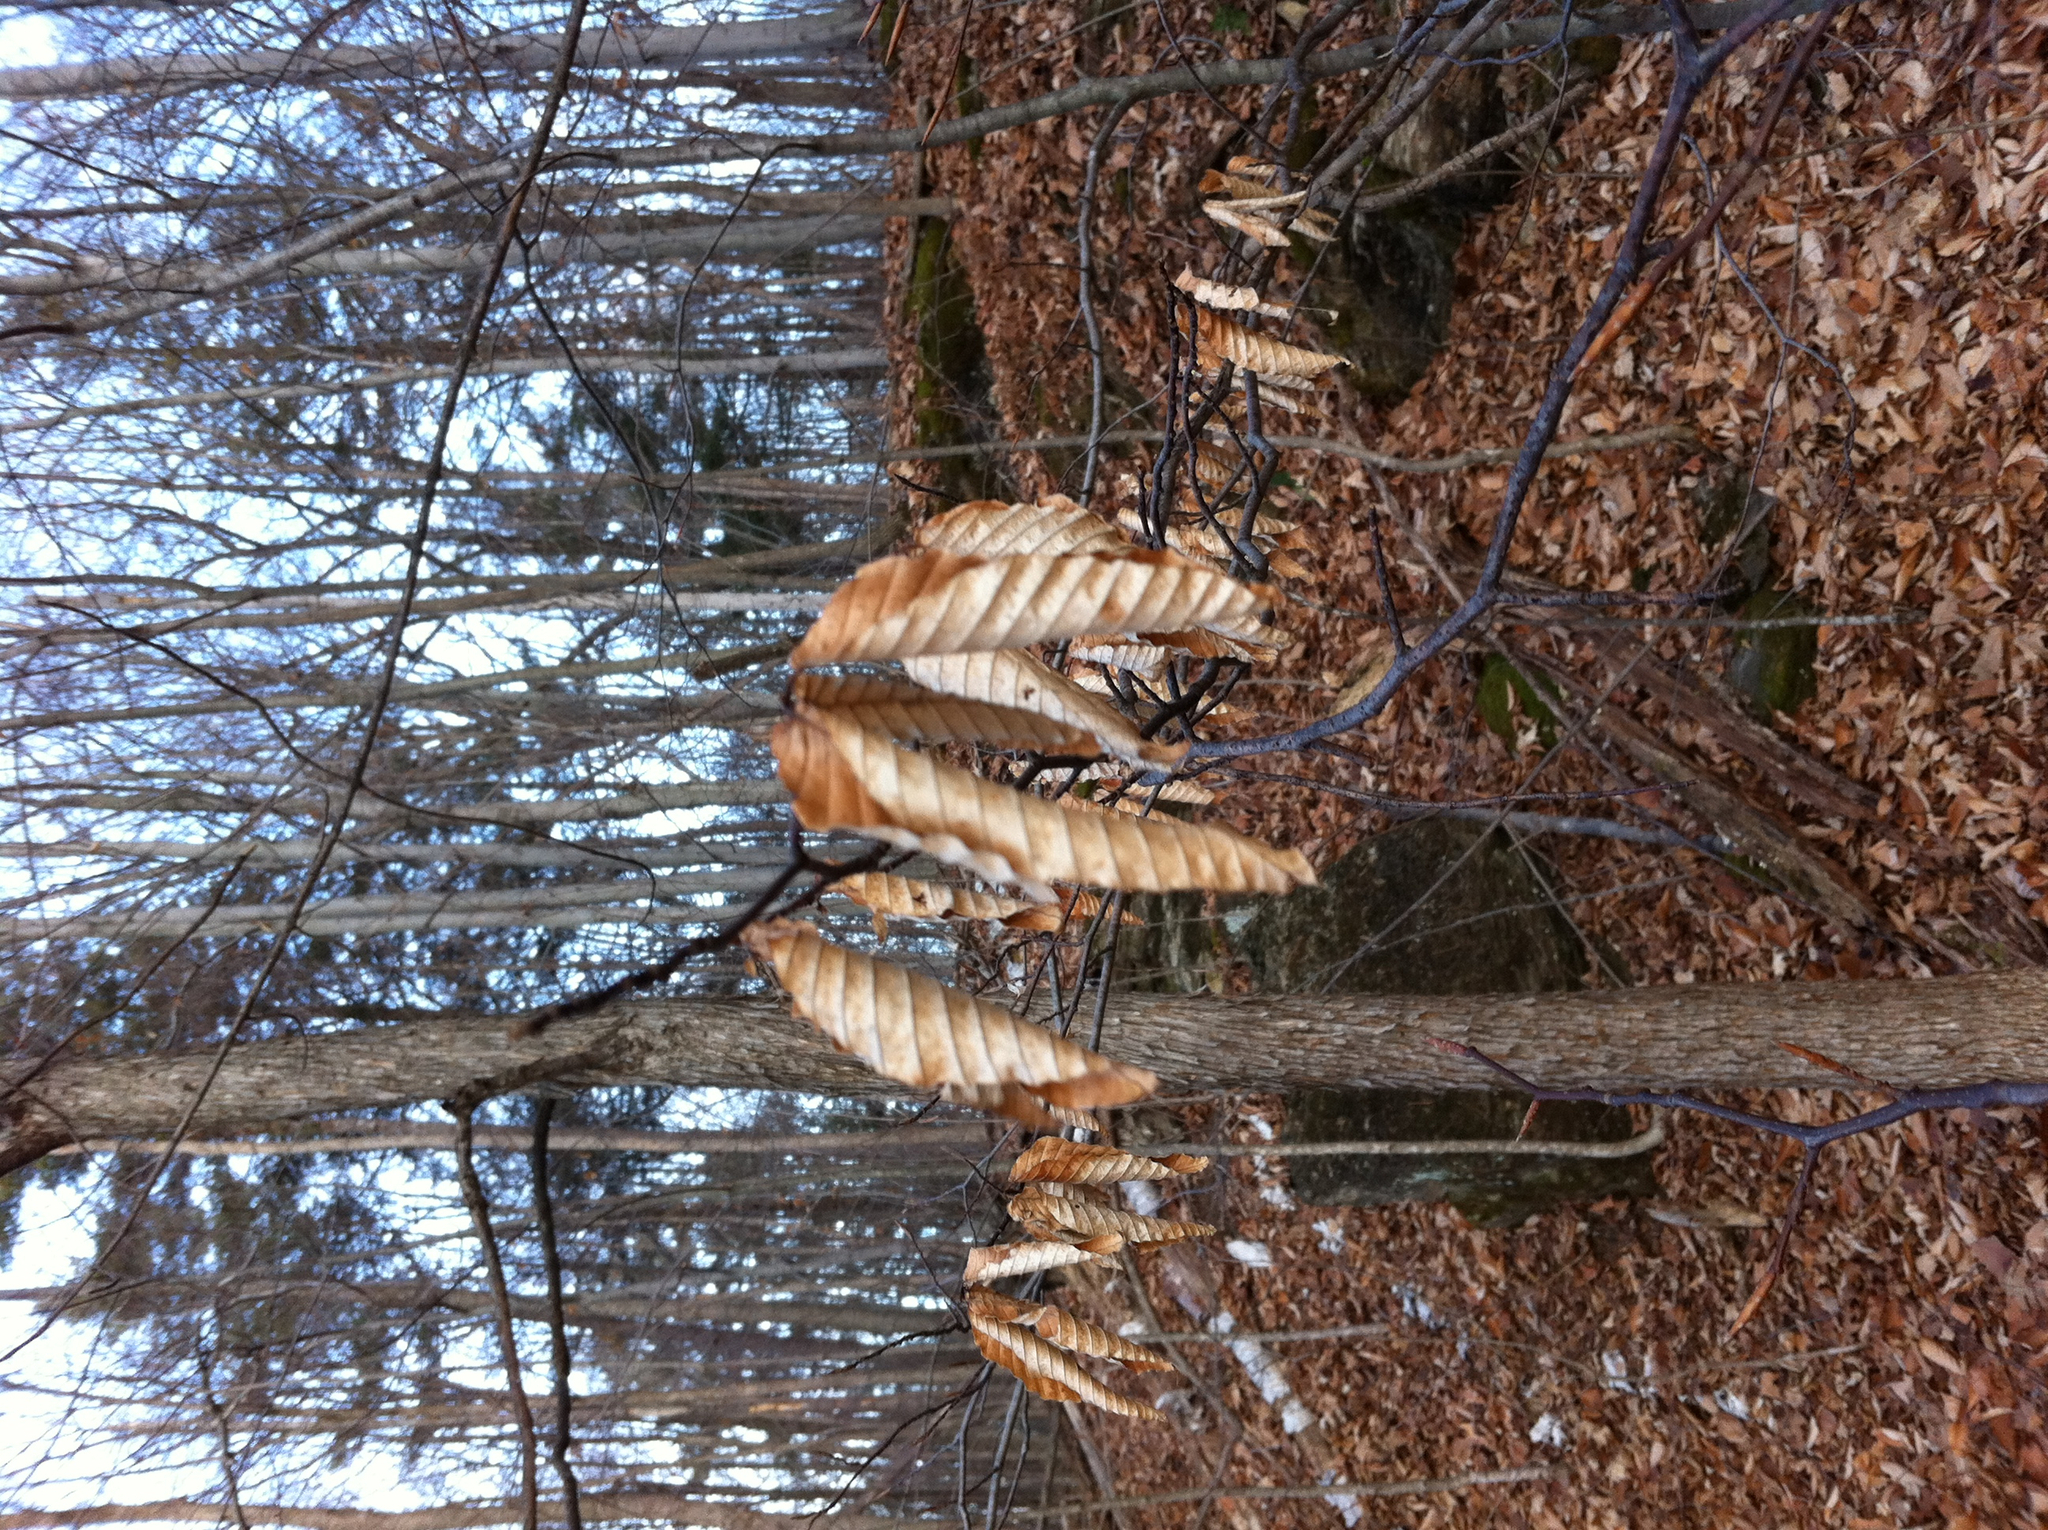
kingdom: Plantae
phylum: Tracheophyta
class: Magnoliopsida
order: Fagales
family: Fagaceae
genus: Fagus
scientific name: Fagus grandifolia
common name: American beech
